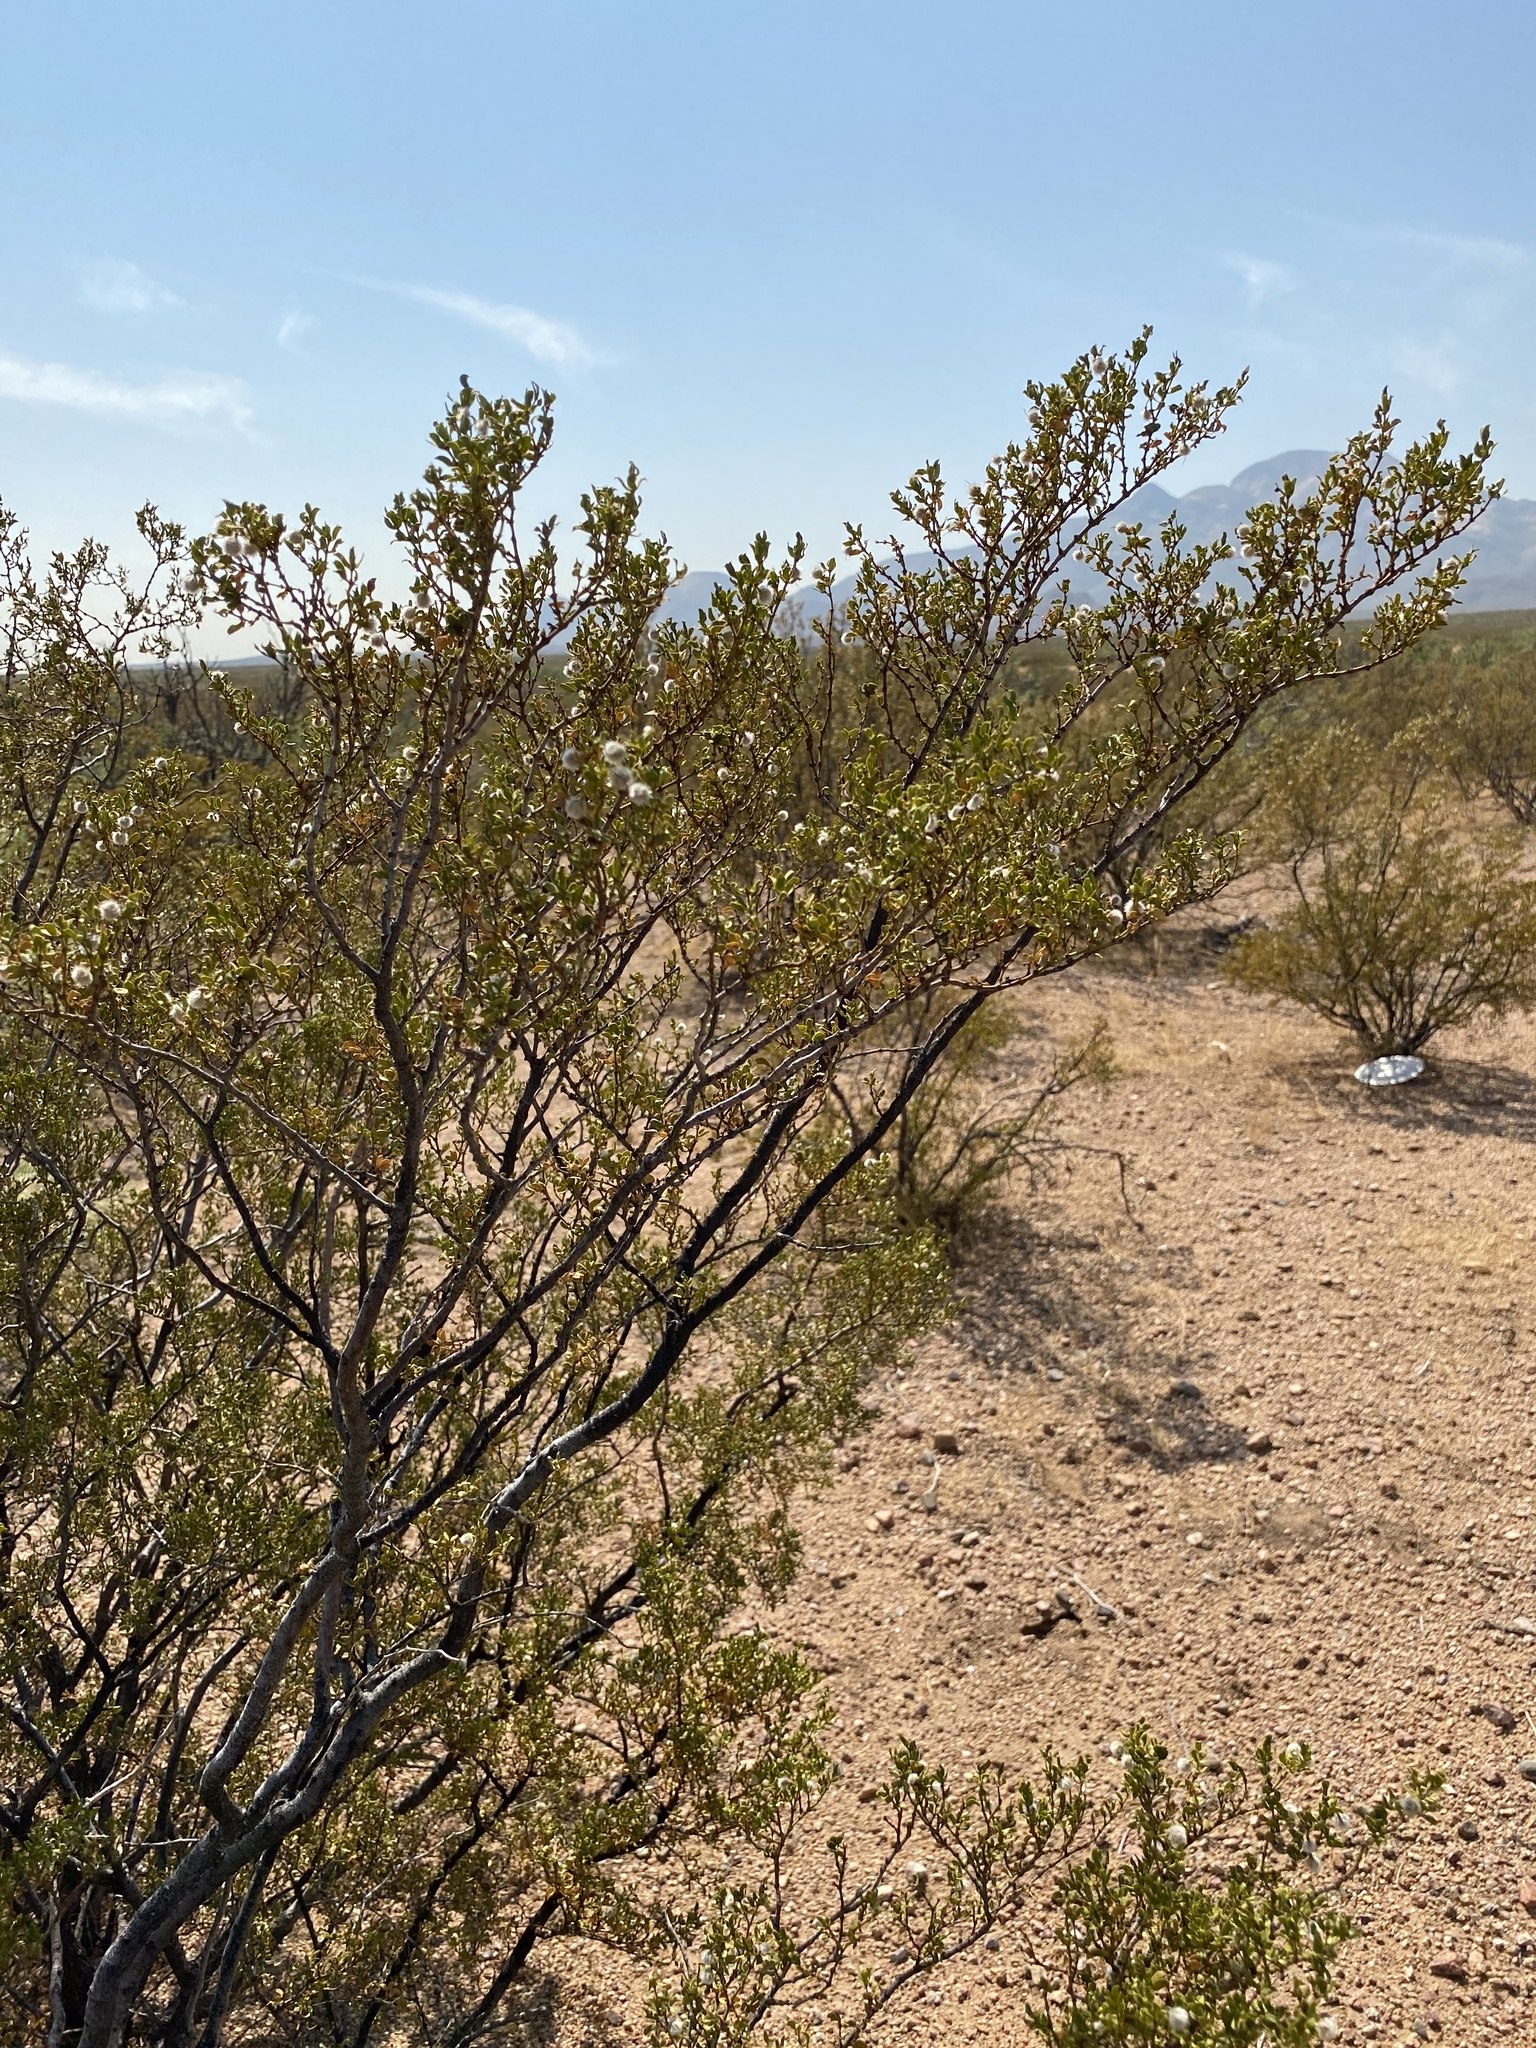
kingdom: Plantae
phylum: Tracheophyta
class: Magnoliopsida
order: Zygophyllales
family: Zygophyllaceae
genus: Larrea
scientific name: Larrea tridentata
